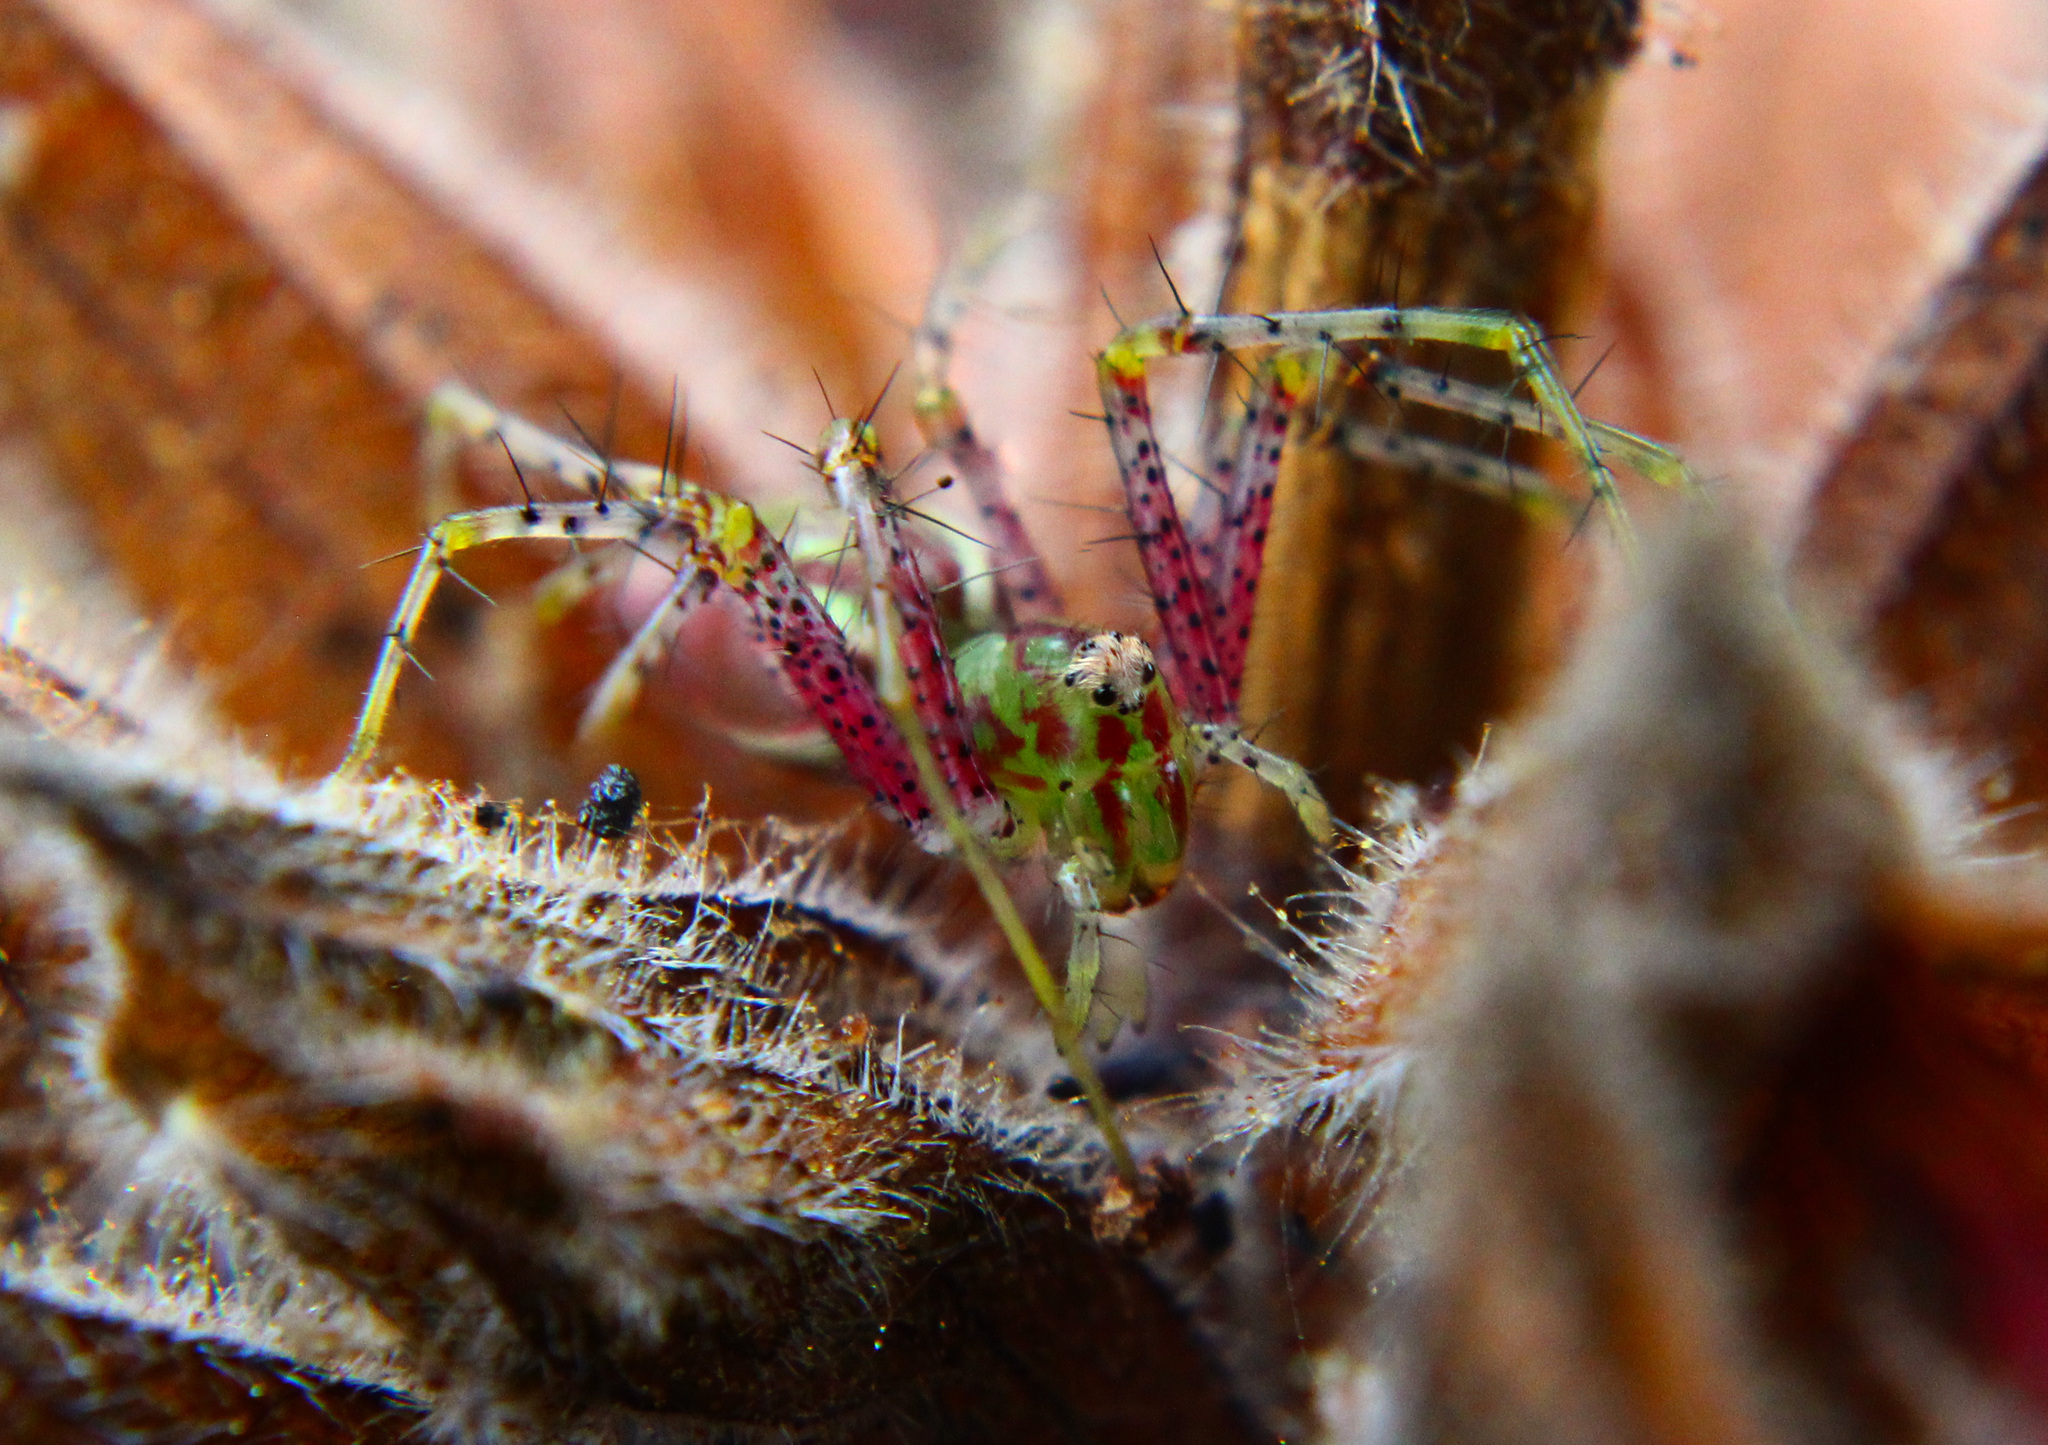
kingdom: Animalia
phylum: Arthropoda
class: Arachnida
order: Araneae
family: Oxyopidae
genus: Peucetia
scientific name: Peucetia viridans
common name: Lynx spiders
